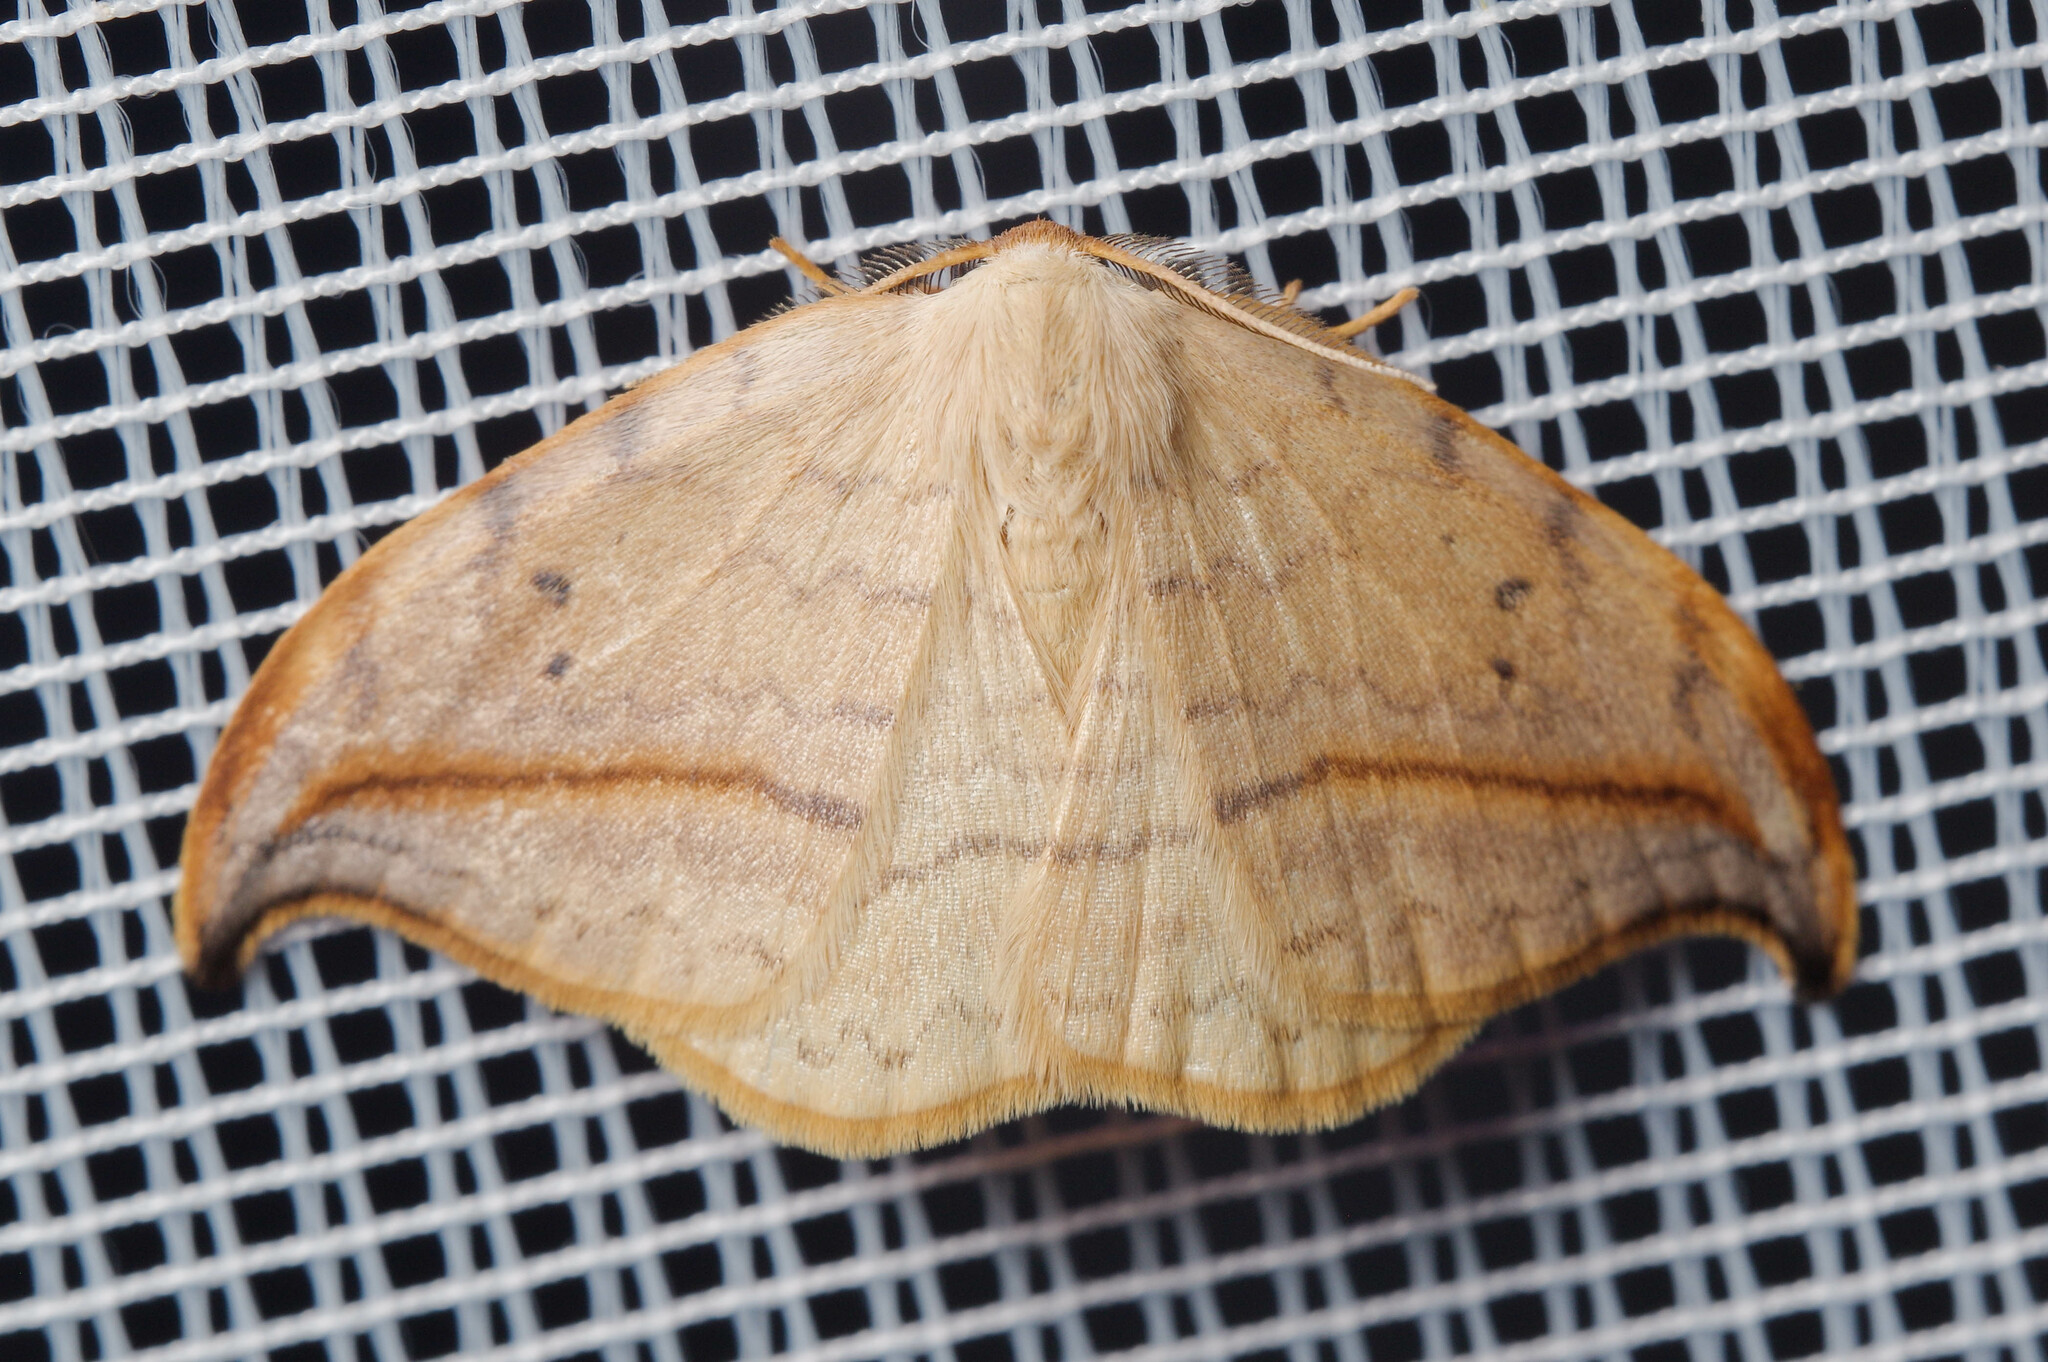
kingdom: Animalia
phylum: Arthropoda
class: Insecta
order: Lepidoptera
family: Drepanidae
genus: Drepana
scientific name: Drepana arcuata
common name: Arched hooktip moth
